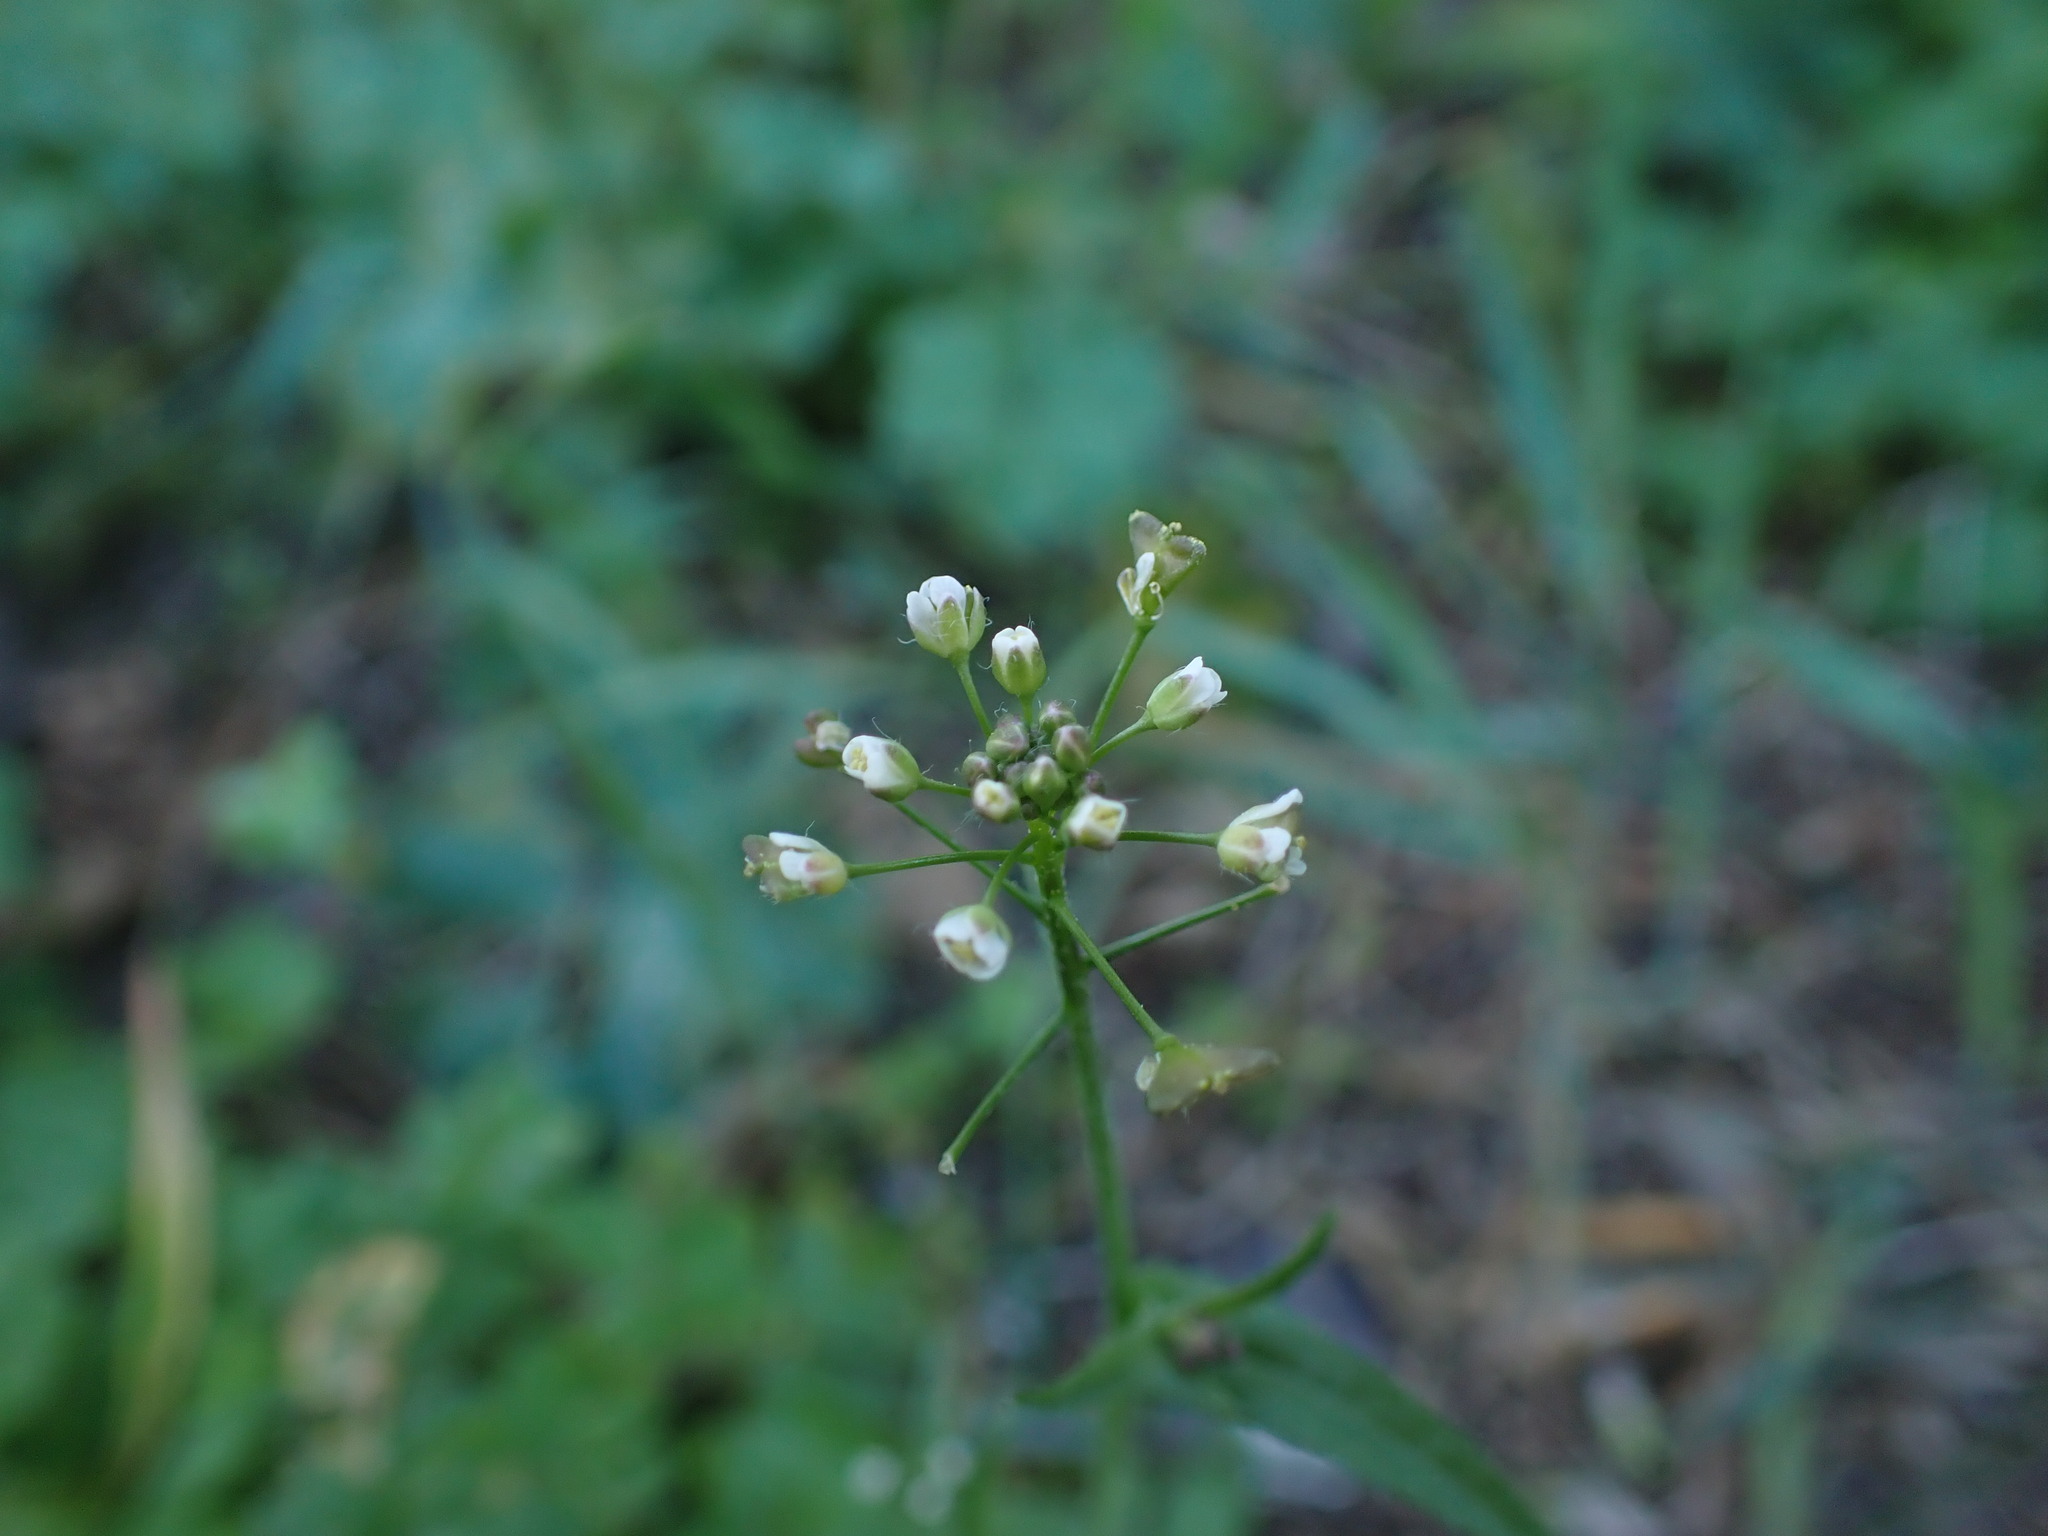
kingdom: Plantae
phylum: Tracheophyta
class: Magnoliopsida
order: Brassicales
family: Brassicaceae
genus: Capsella
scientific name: Capsella bursa-pastoris
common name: Shepherd's purse
